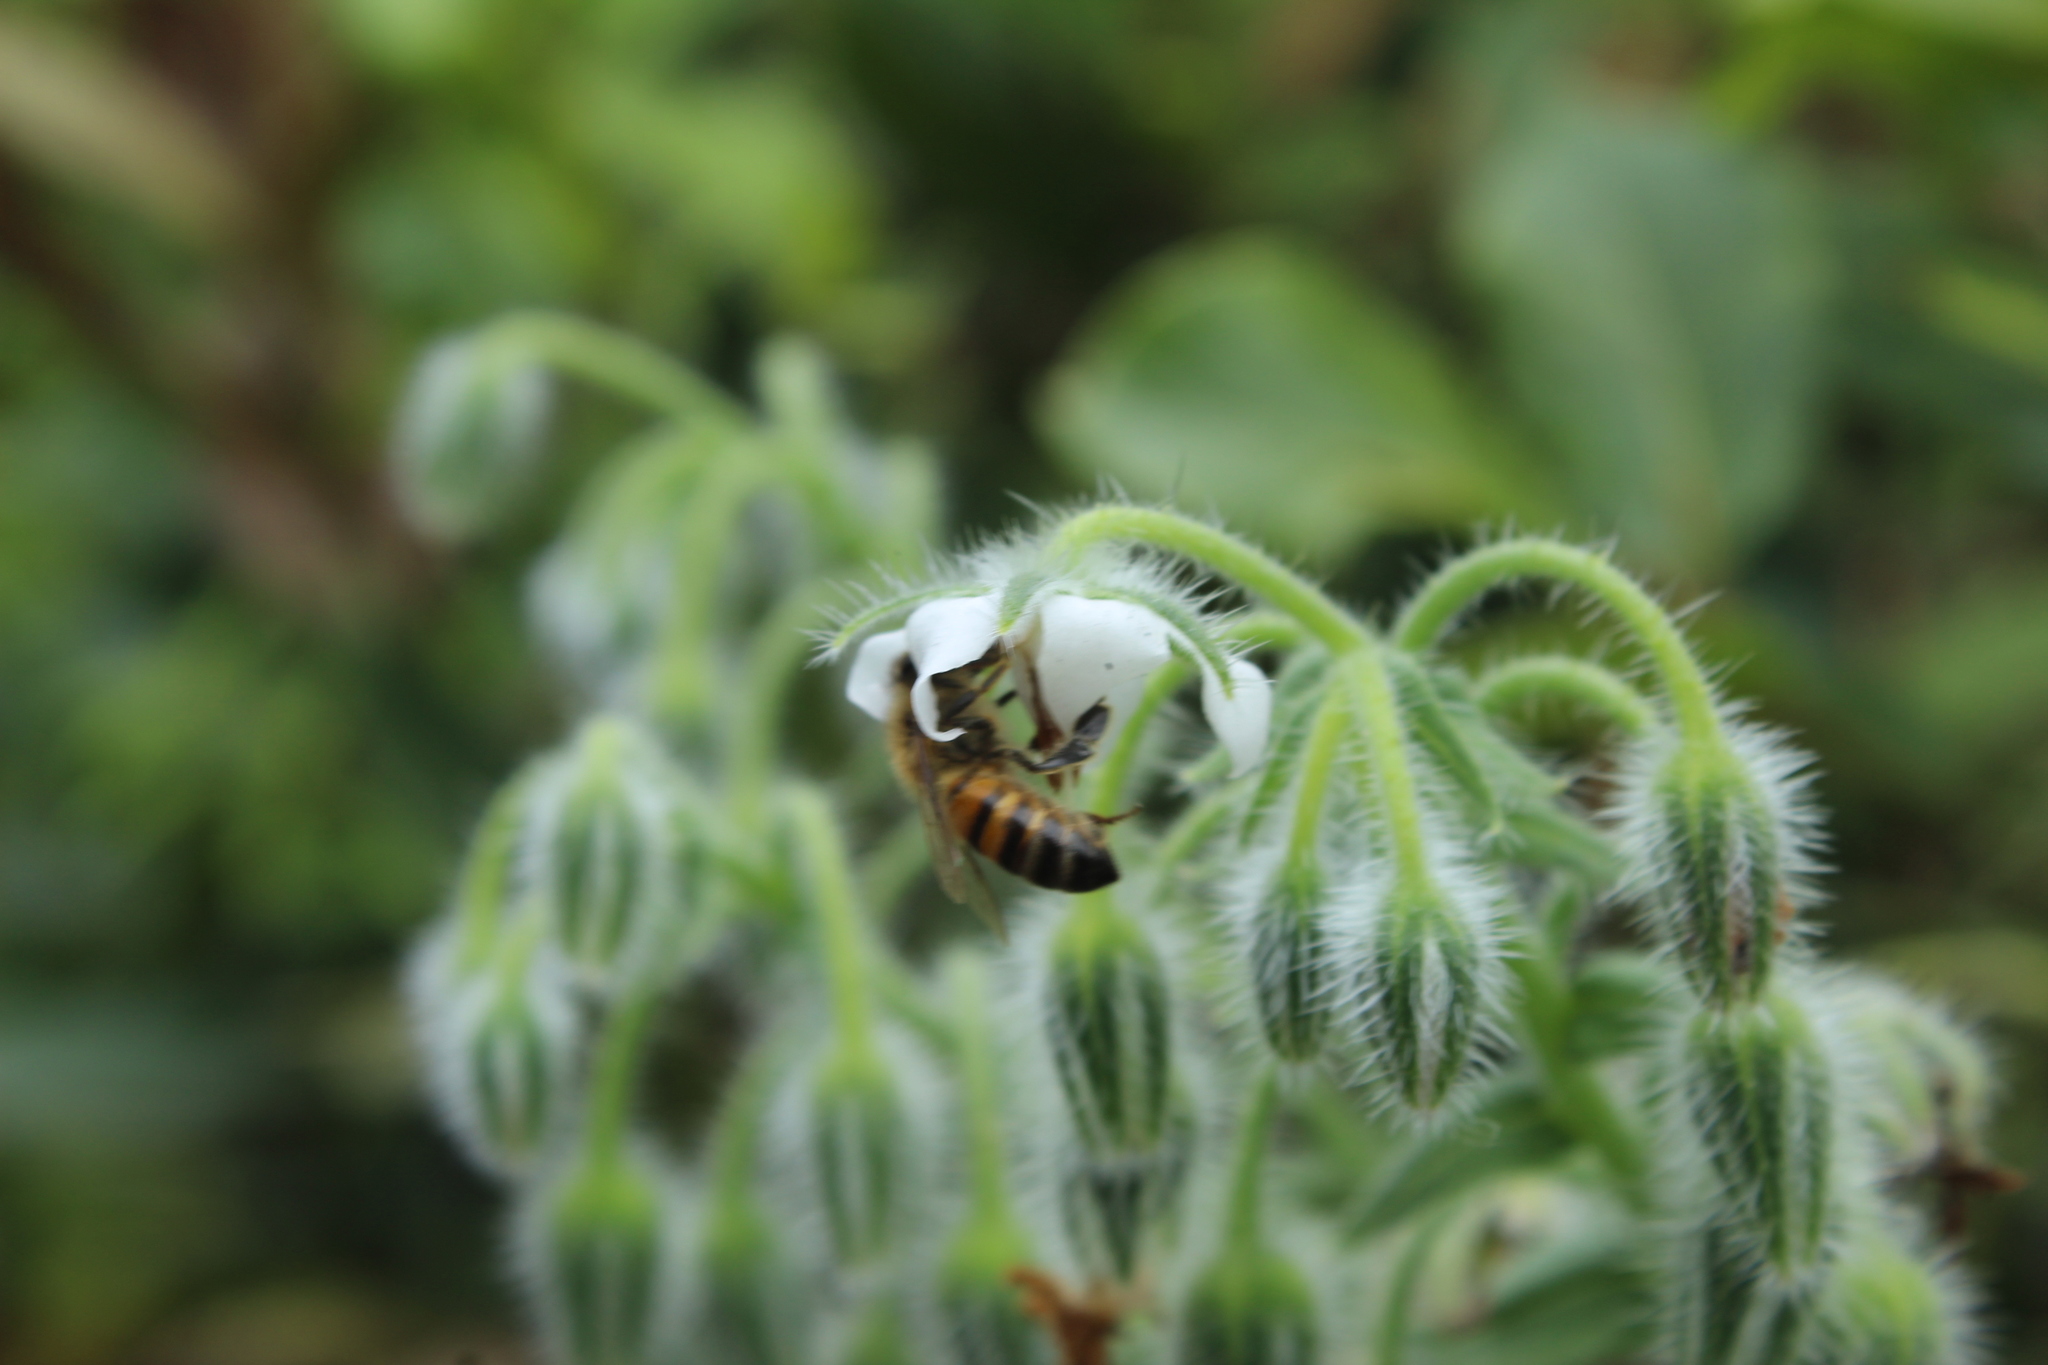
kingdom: Animalia
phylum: Arthropoda
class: Insecta
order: Hymenoptera
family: Apidae
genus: Apis
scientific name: Apis mellifera
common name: Honey bee
